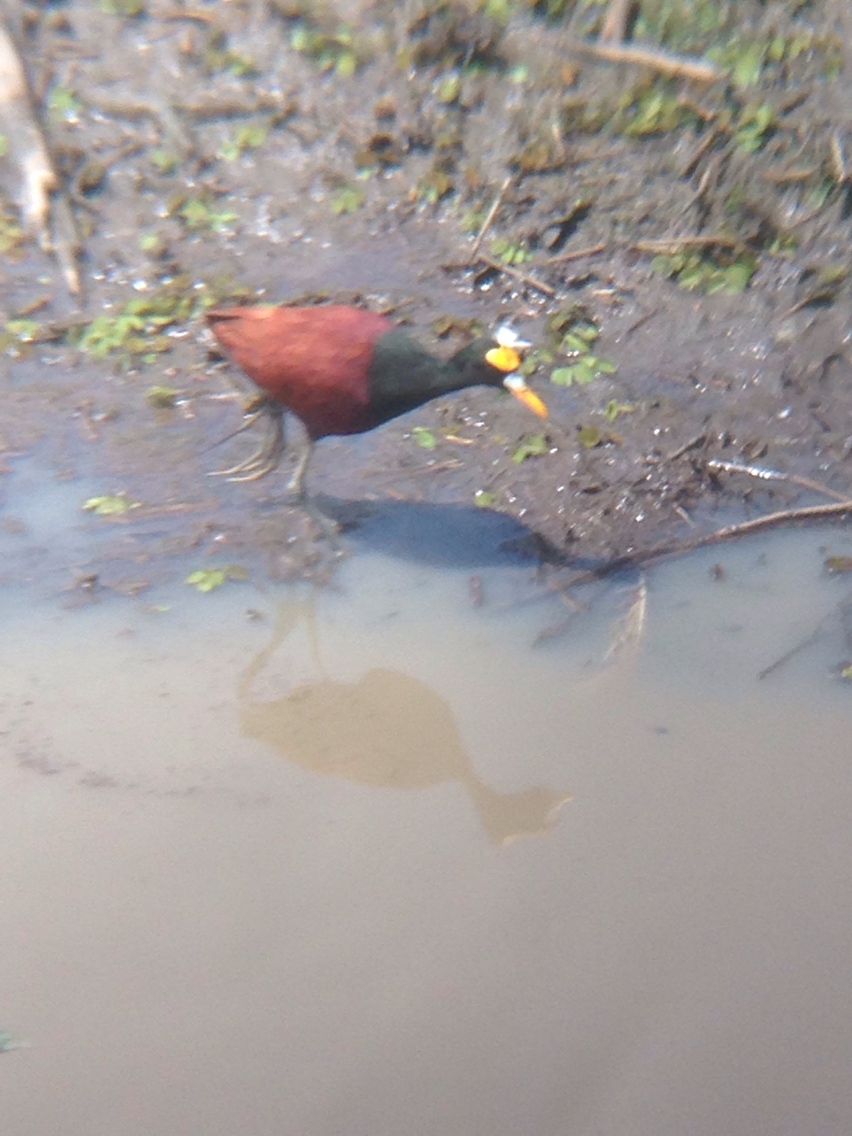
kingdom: Animalia
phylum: Chordata
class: Aves
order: Charadriiformes
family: Jacanidae
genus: Jacana
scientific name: Jacana spinosa
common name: Northern jacana
